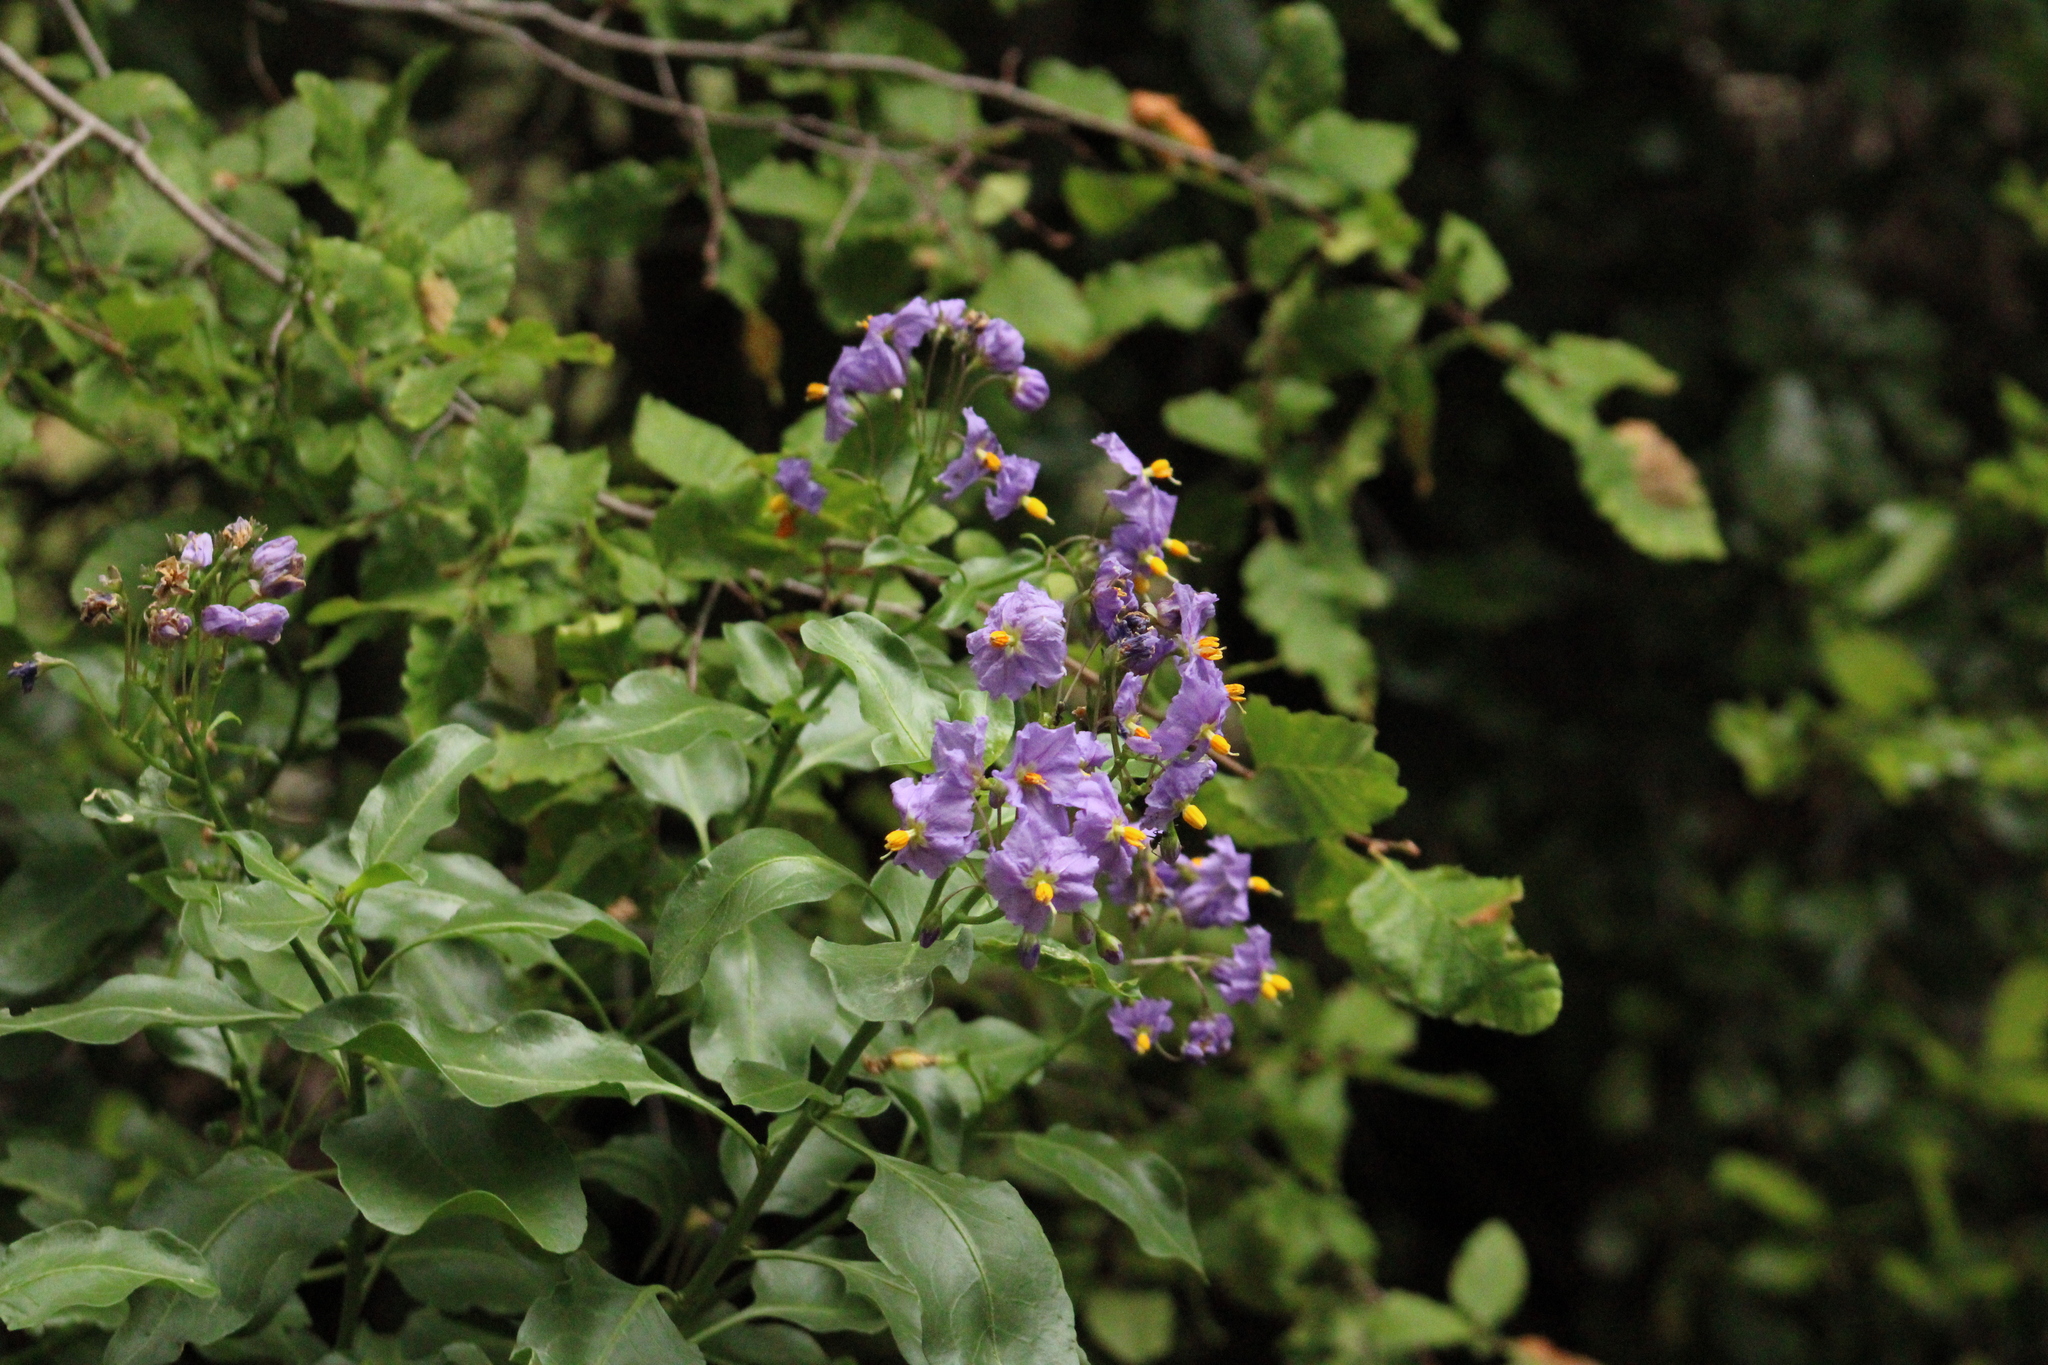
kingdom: Plantae
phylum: Tracheophyta
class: Magnoliopsida
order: Solanales
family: Solanaceae
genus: Solanum
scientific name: Solanum crispum
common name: Chilean nightshade
